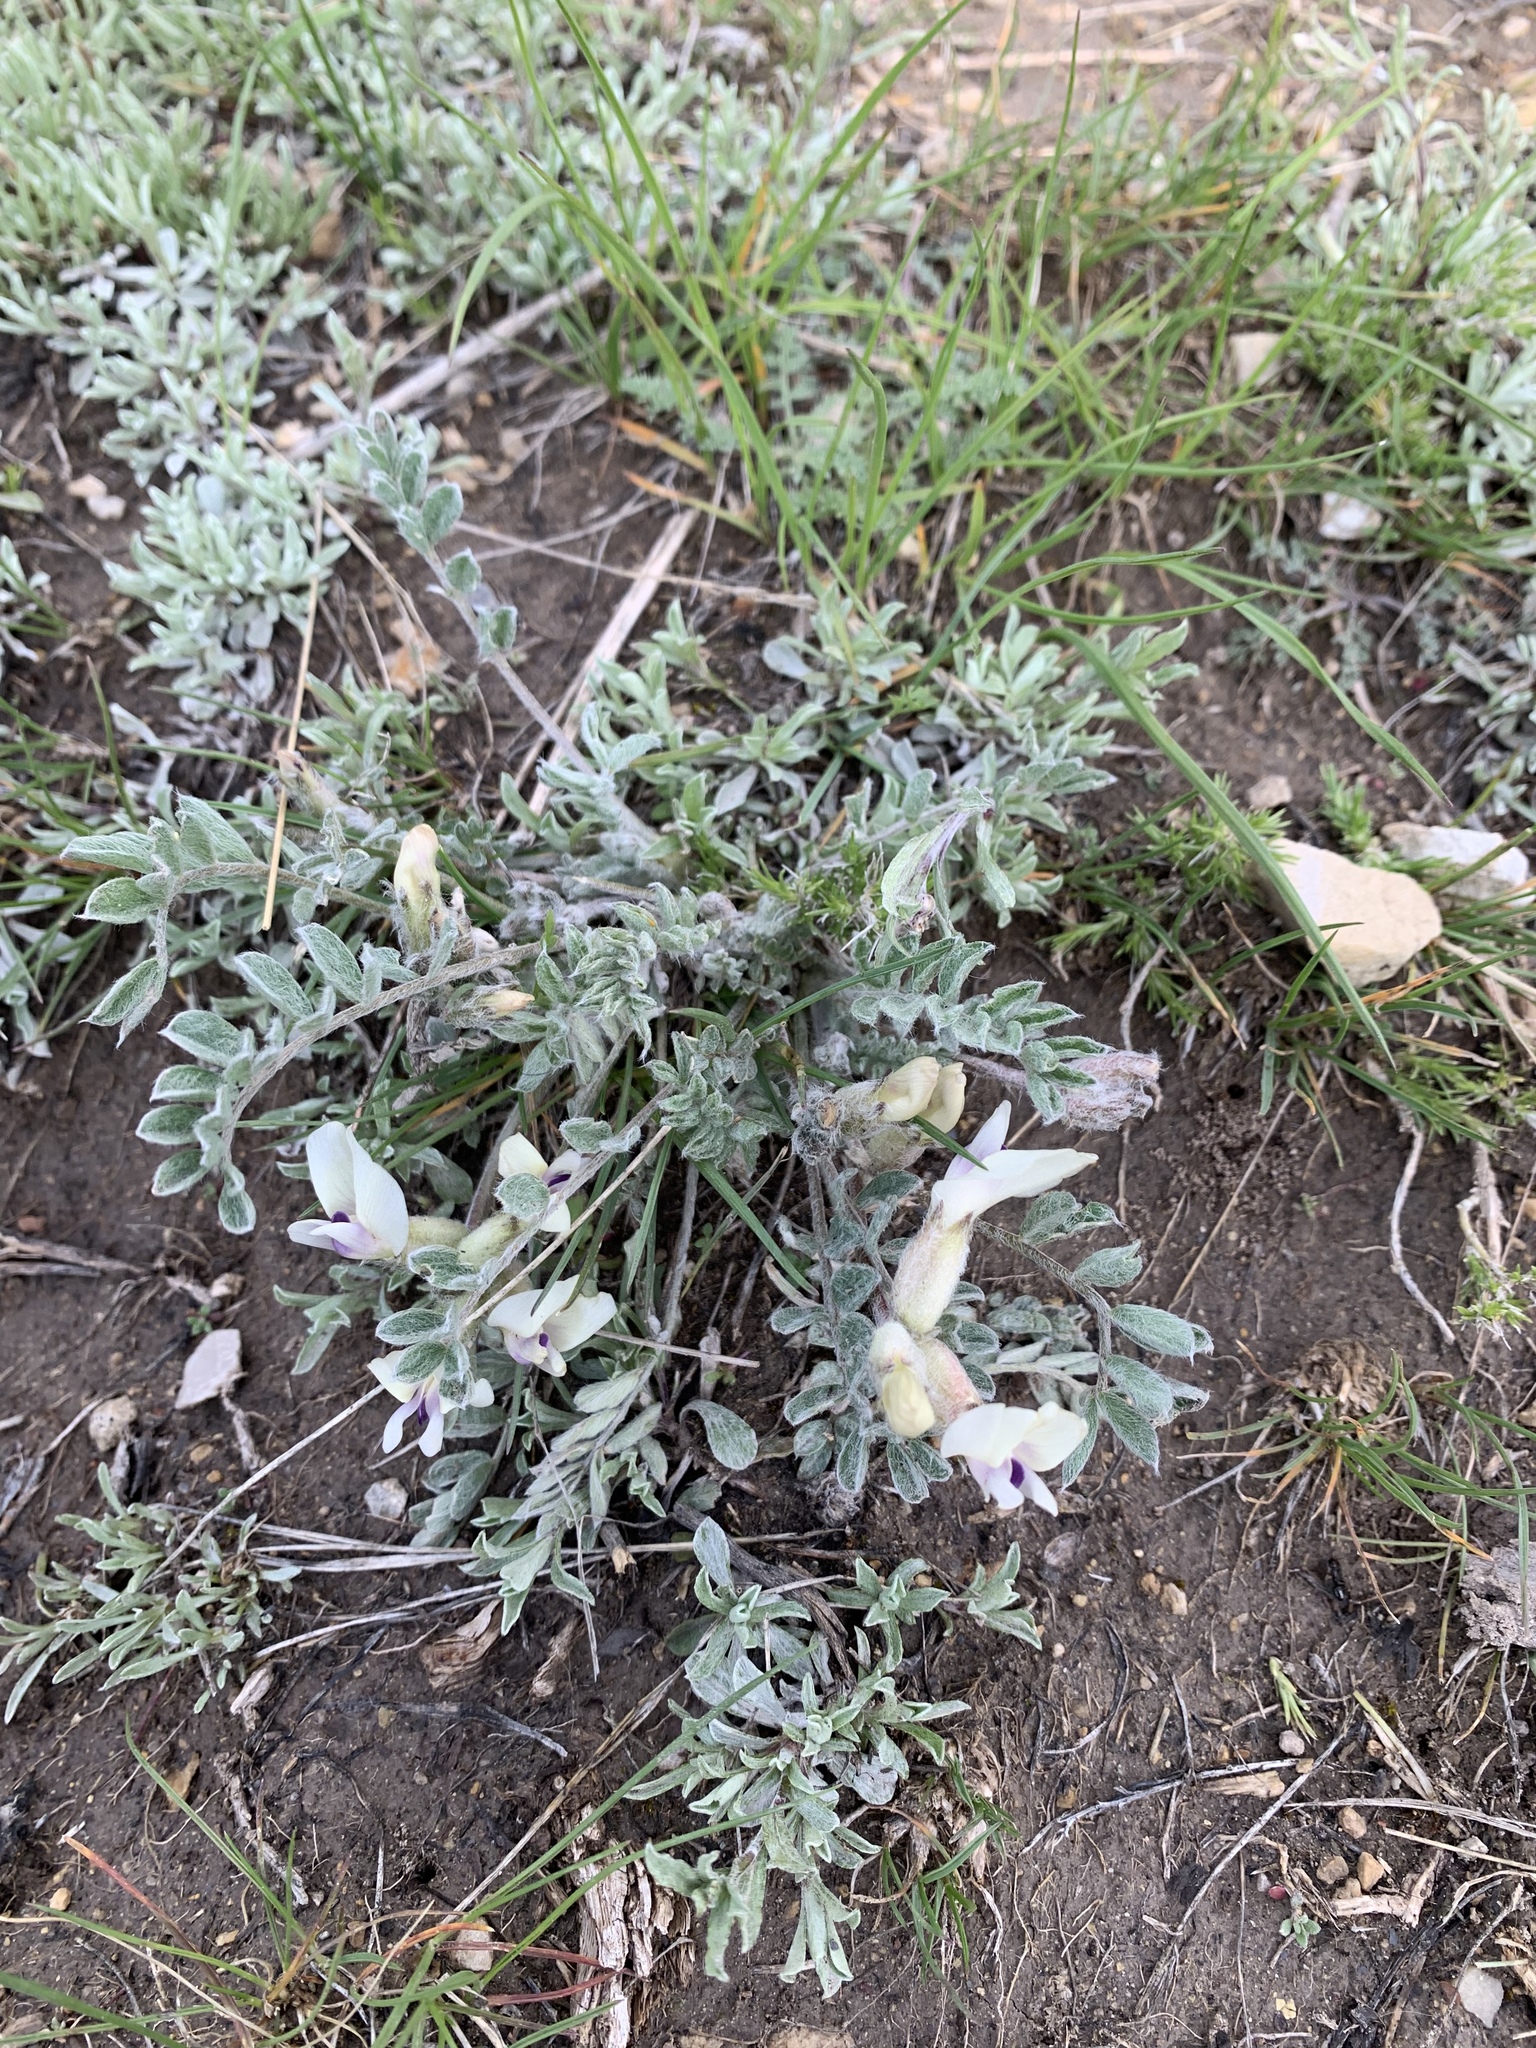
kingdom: Plantae
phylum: Tracheophyta
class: Magnoliopsida
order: Fabales
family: Fabaceae
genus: Astragalus
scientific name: Astragalus purshii
